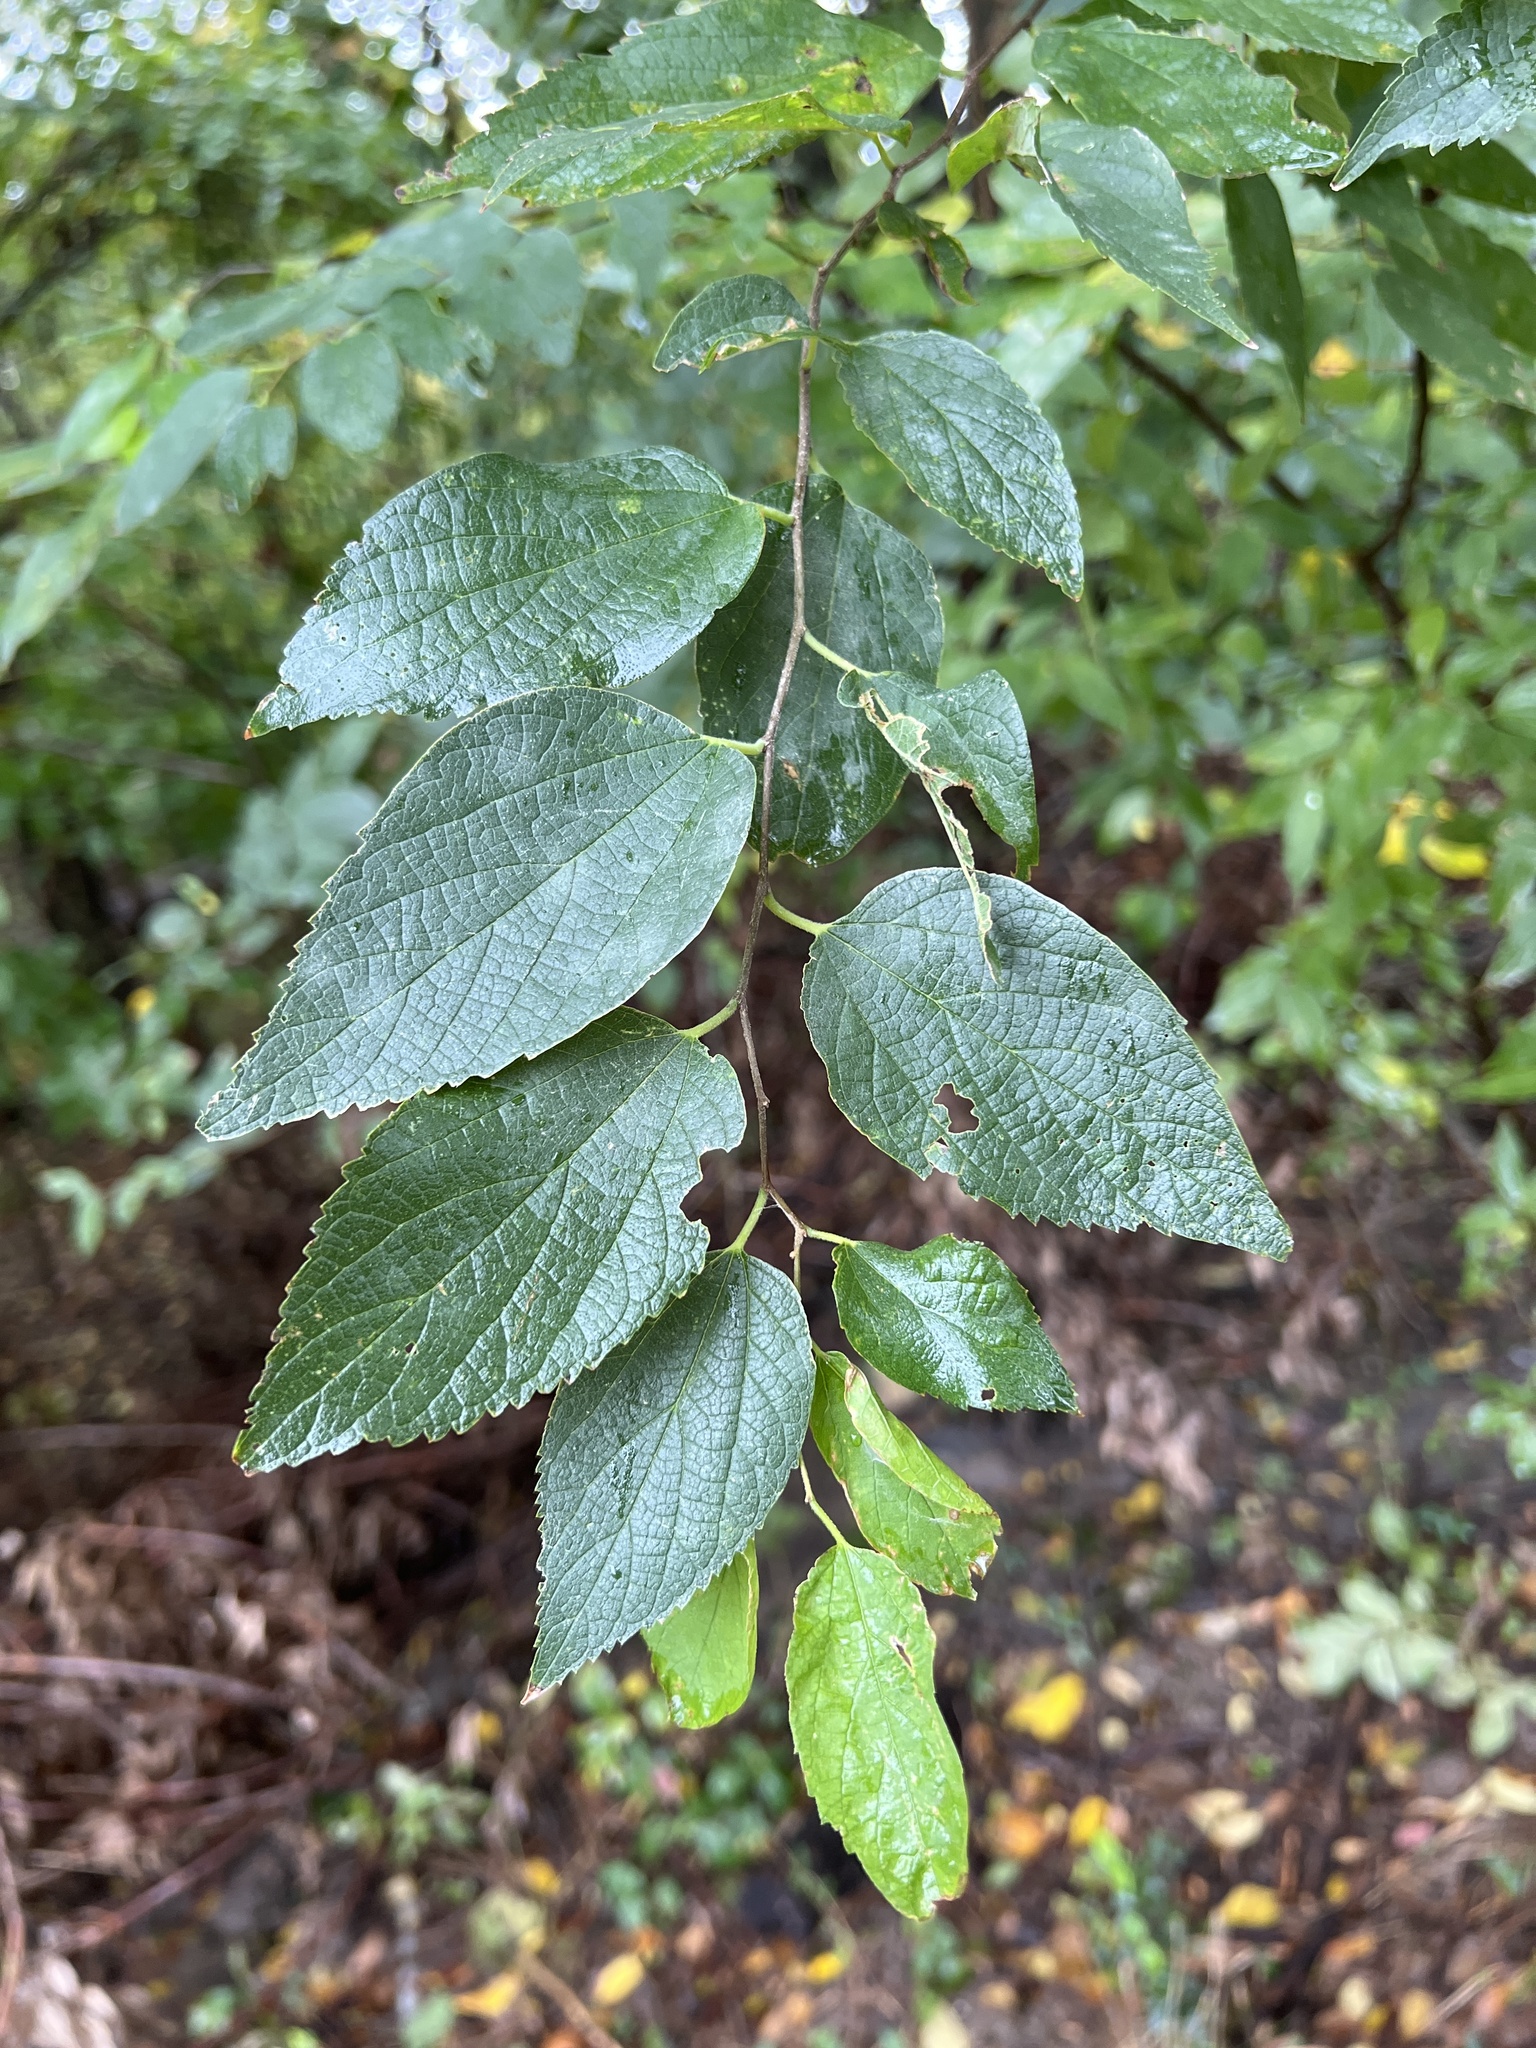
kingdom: Plantae
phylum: Tracheophyta
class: Magnoliopsida
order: Rosales
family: Cannabaceae
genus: Celtis
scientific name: Celtis laevigata
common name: Sugarberry
